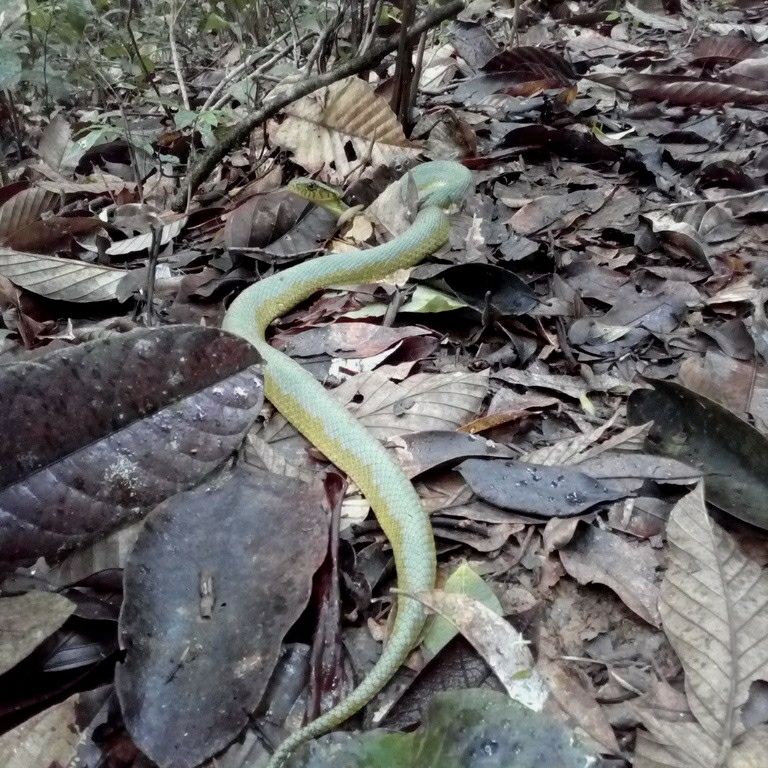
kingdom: Animalia
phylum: Chordata
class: Squamata
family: Colubridae
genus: Xenodon
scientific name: Xenodon werneri
